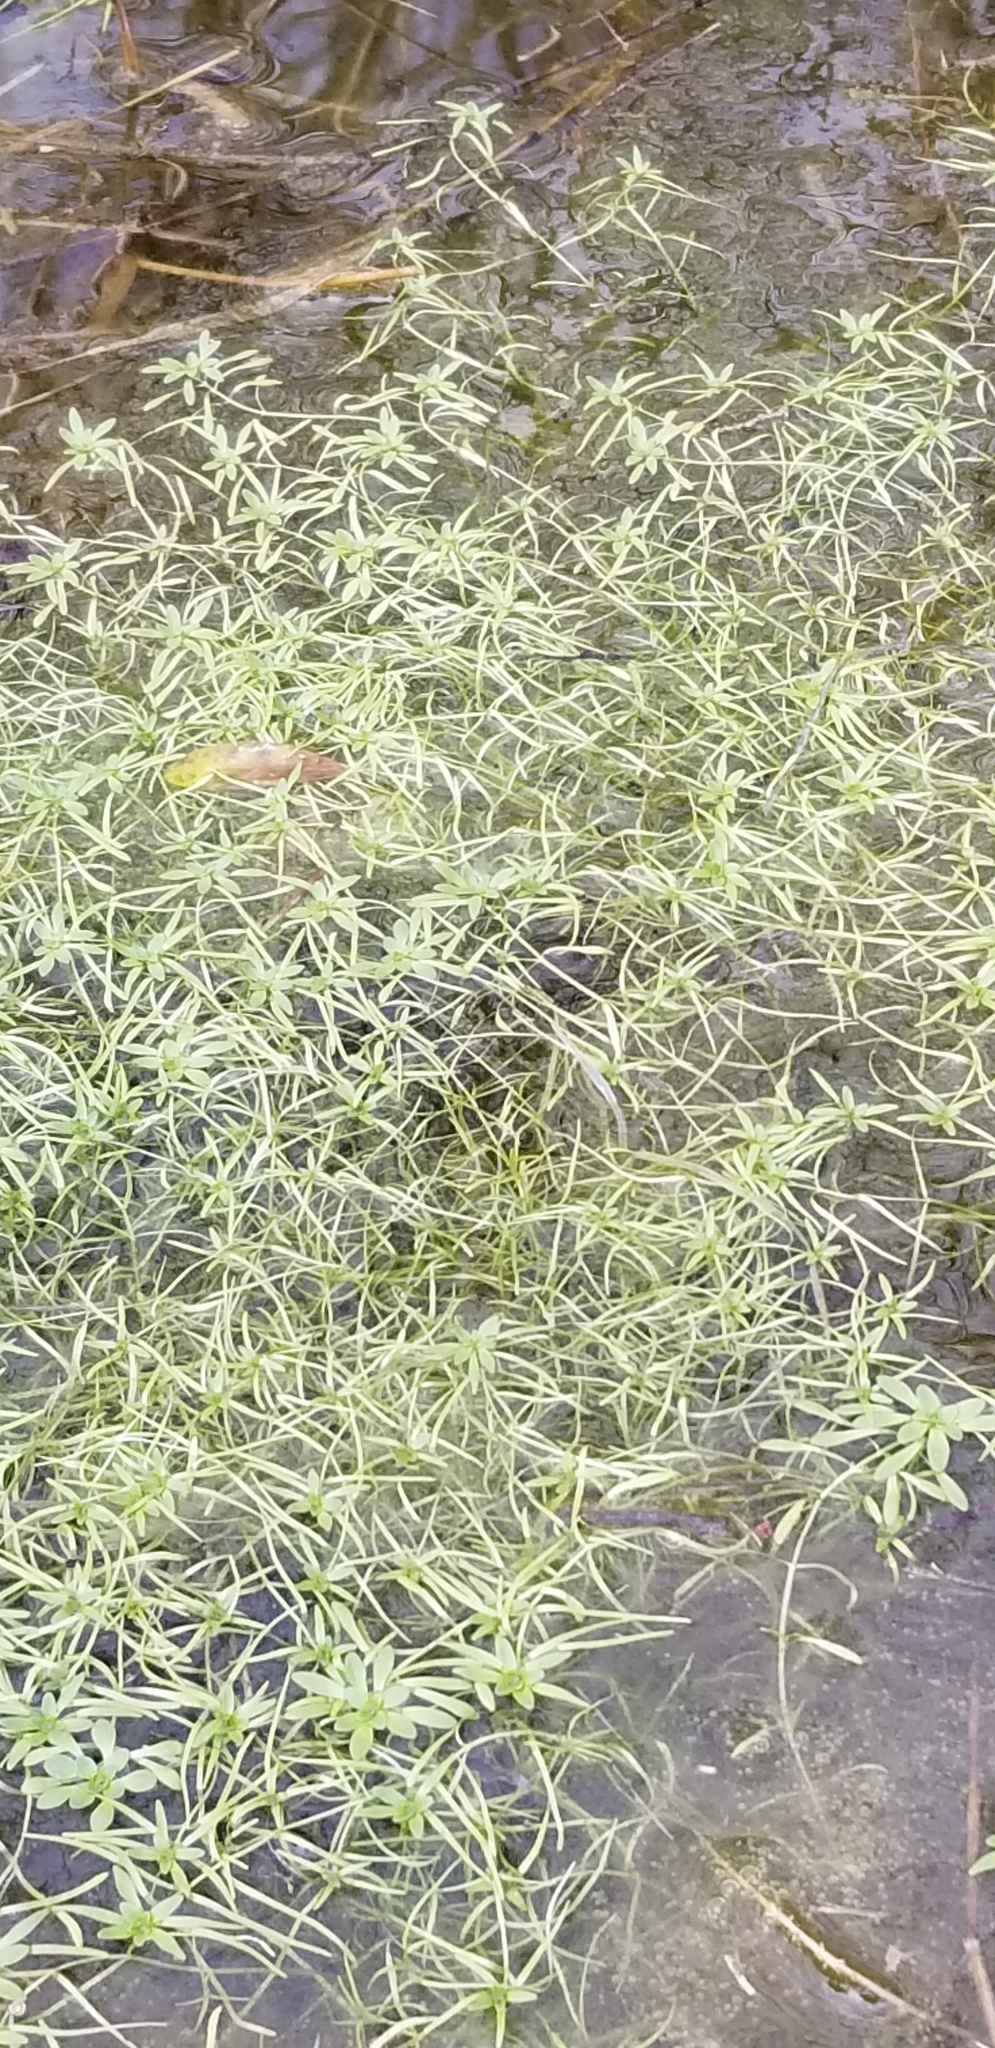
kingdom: Plantae
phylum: Tracheophyta
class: Liliopsida
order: Commelinales
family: Pontederiaceae
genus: Heteranthera
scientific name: Heteranthera dubia
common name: Grass-leaved mud plantain
